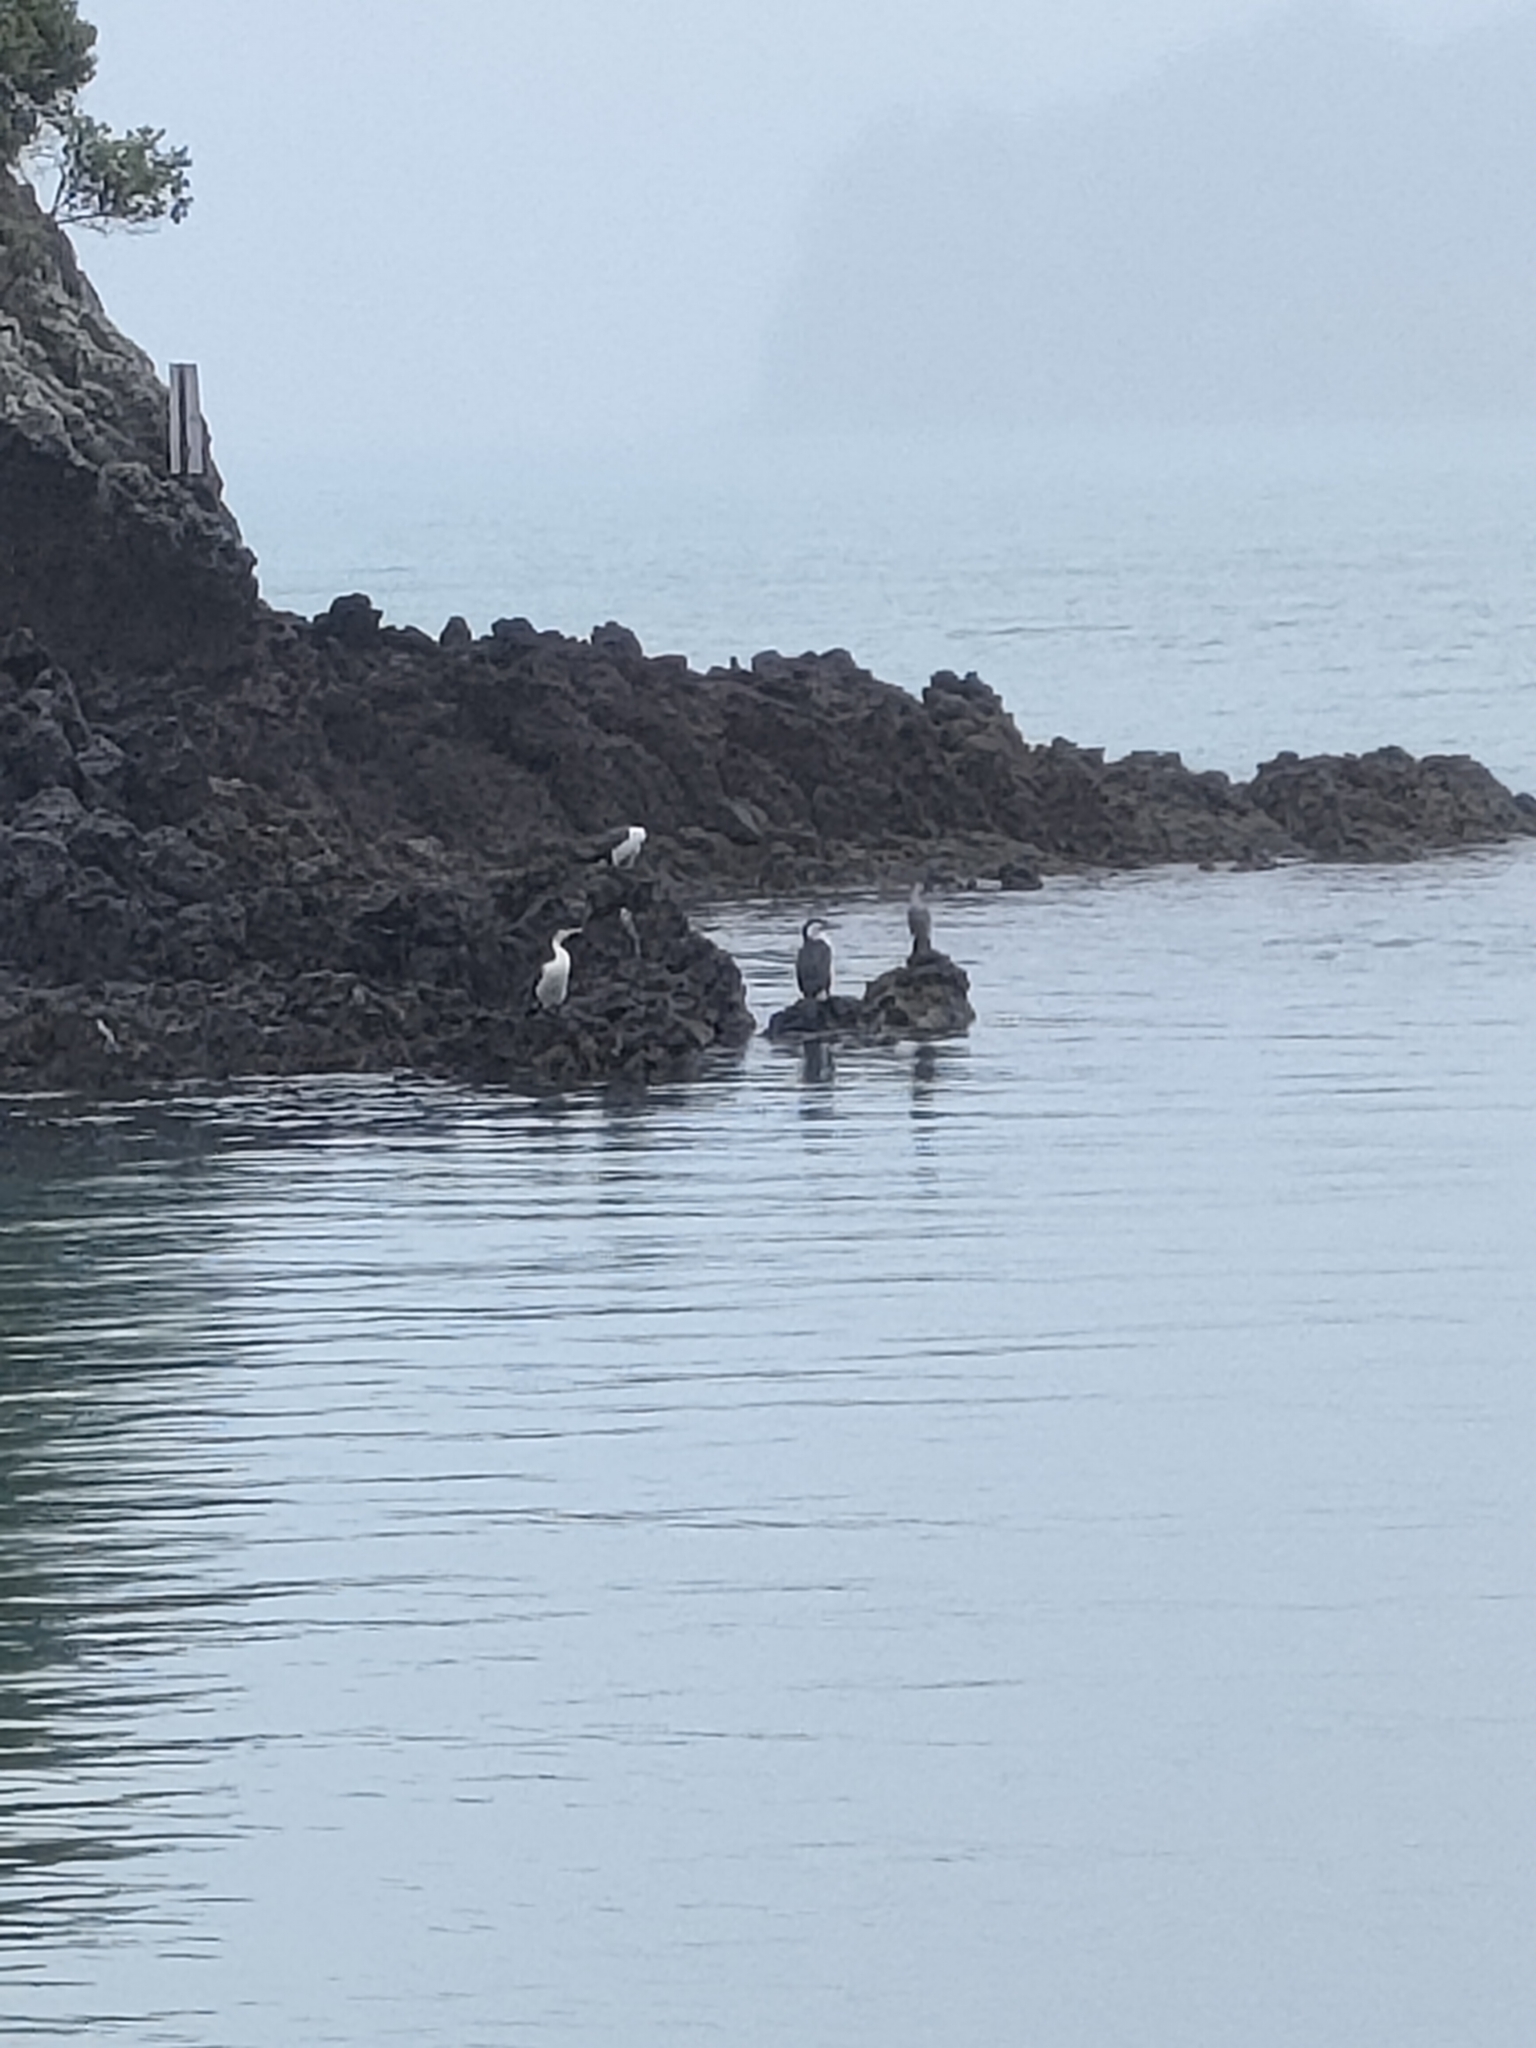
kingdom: Animalia
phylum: Chordata
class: Aves
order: Suliformes
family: Phalacrocoracidae
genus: Phalacrocorax
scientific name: Phalacrocorax varius
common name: Pied cormorant
